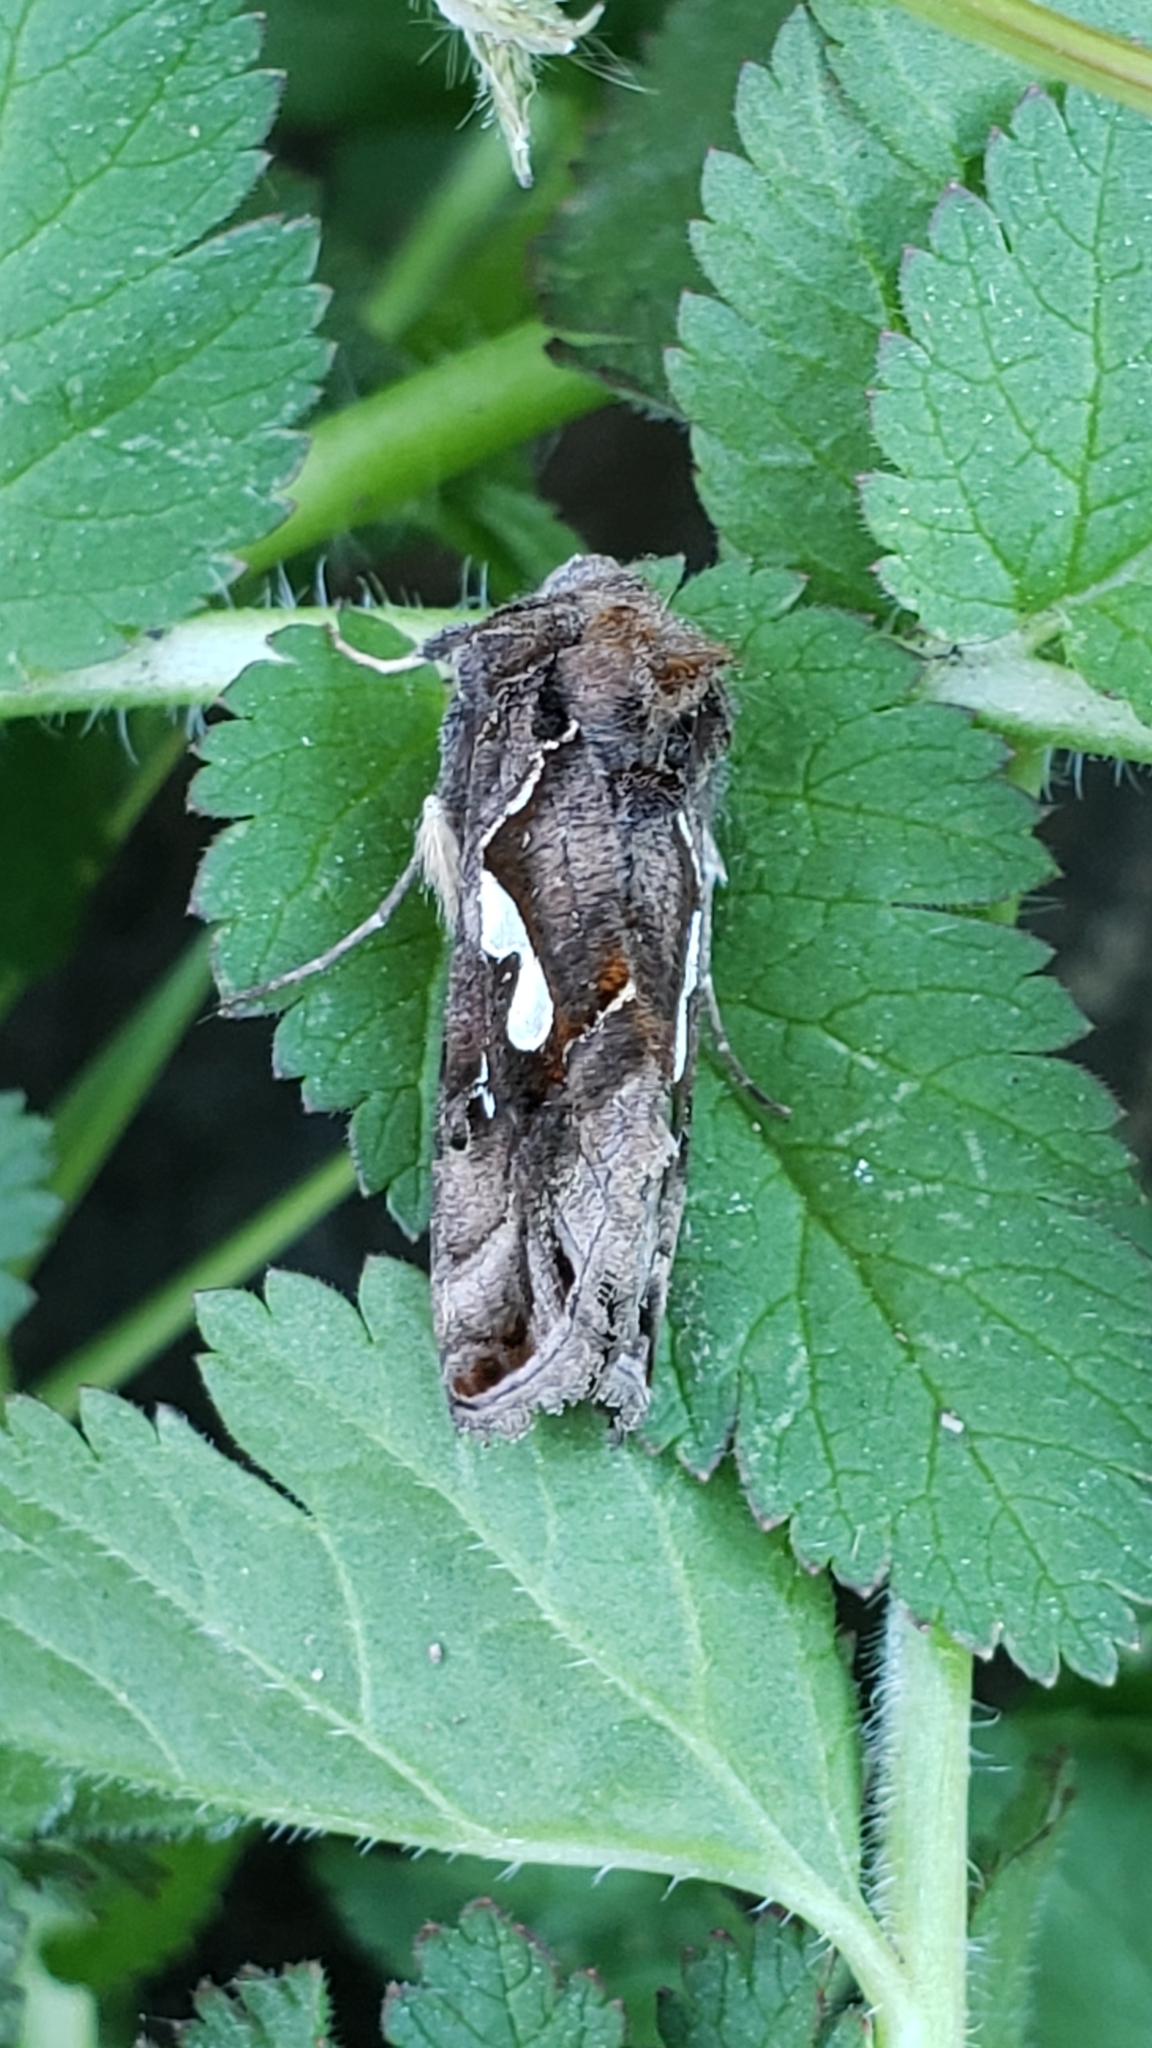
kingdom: Animalia
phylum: Arthropoda
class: Insecta
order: Lepidoptera
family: Noctuidae
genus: Megalographa
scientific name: Megalographa biloba
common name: Cutworm
